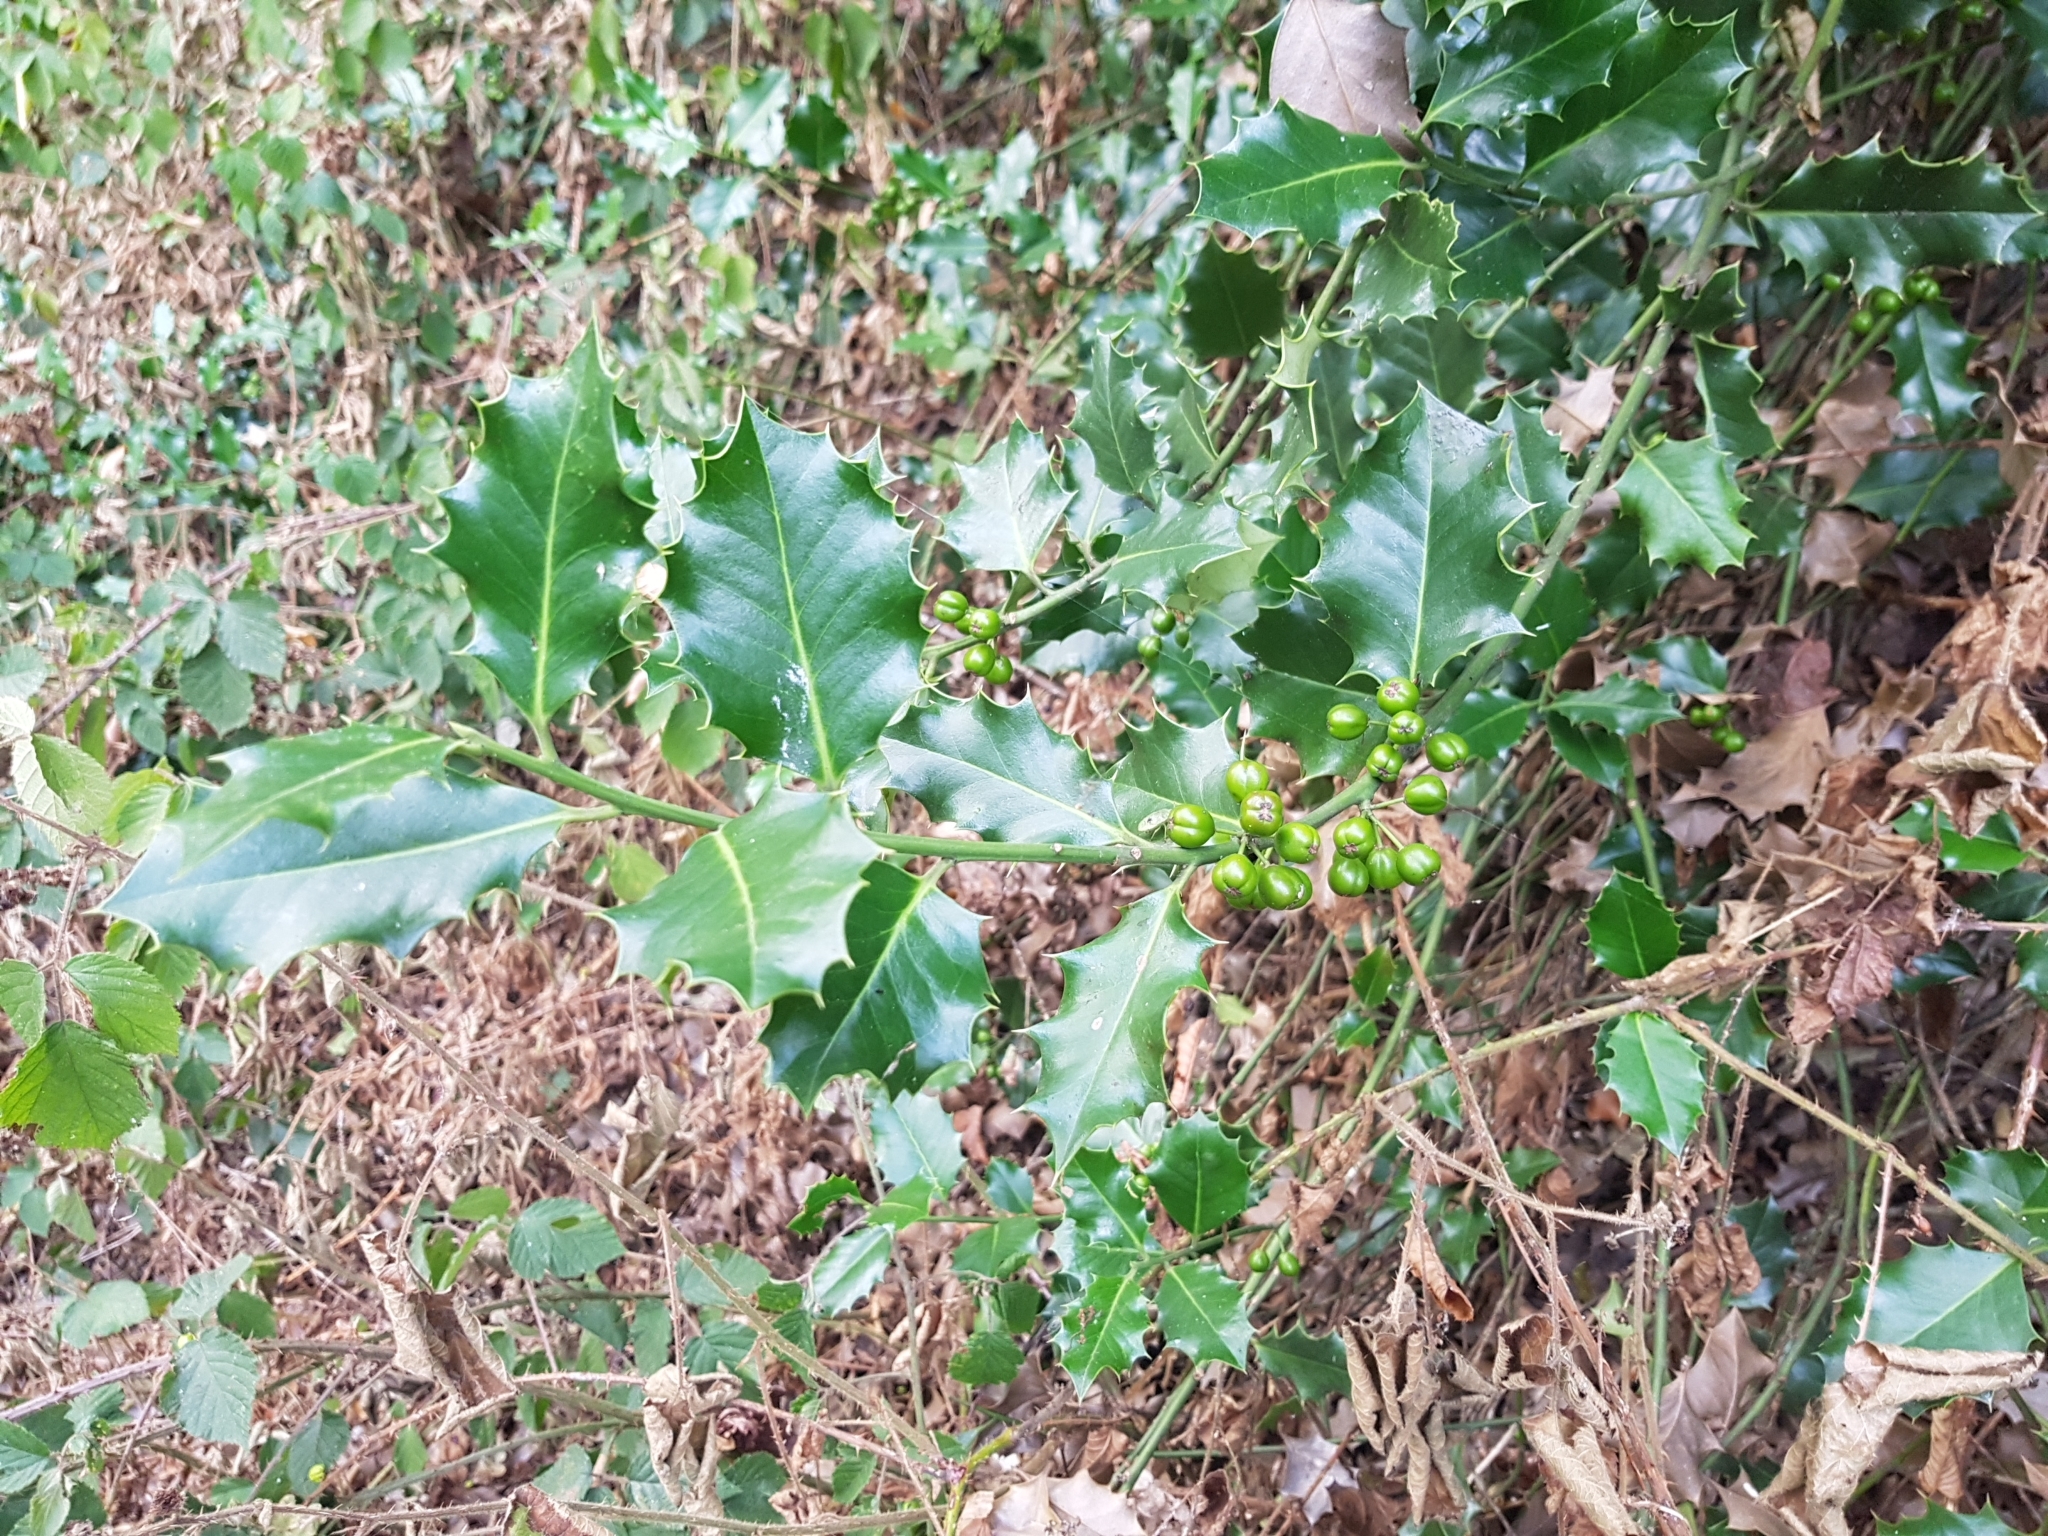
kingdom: Plantae
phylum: Tracheophyta
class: Magnoliopsida
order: Aquifoliales
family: Aquifoliaceae
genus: Ilex
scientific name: Ilex aquifolium
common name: English holly
